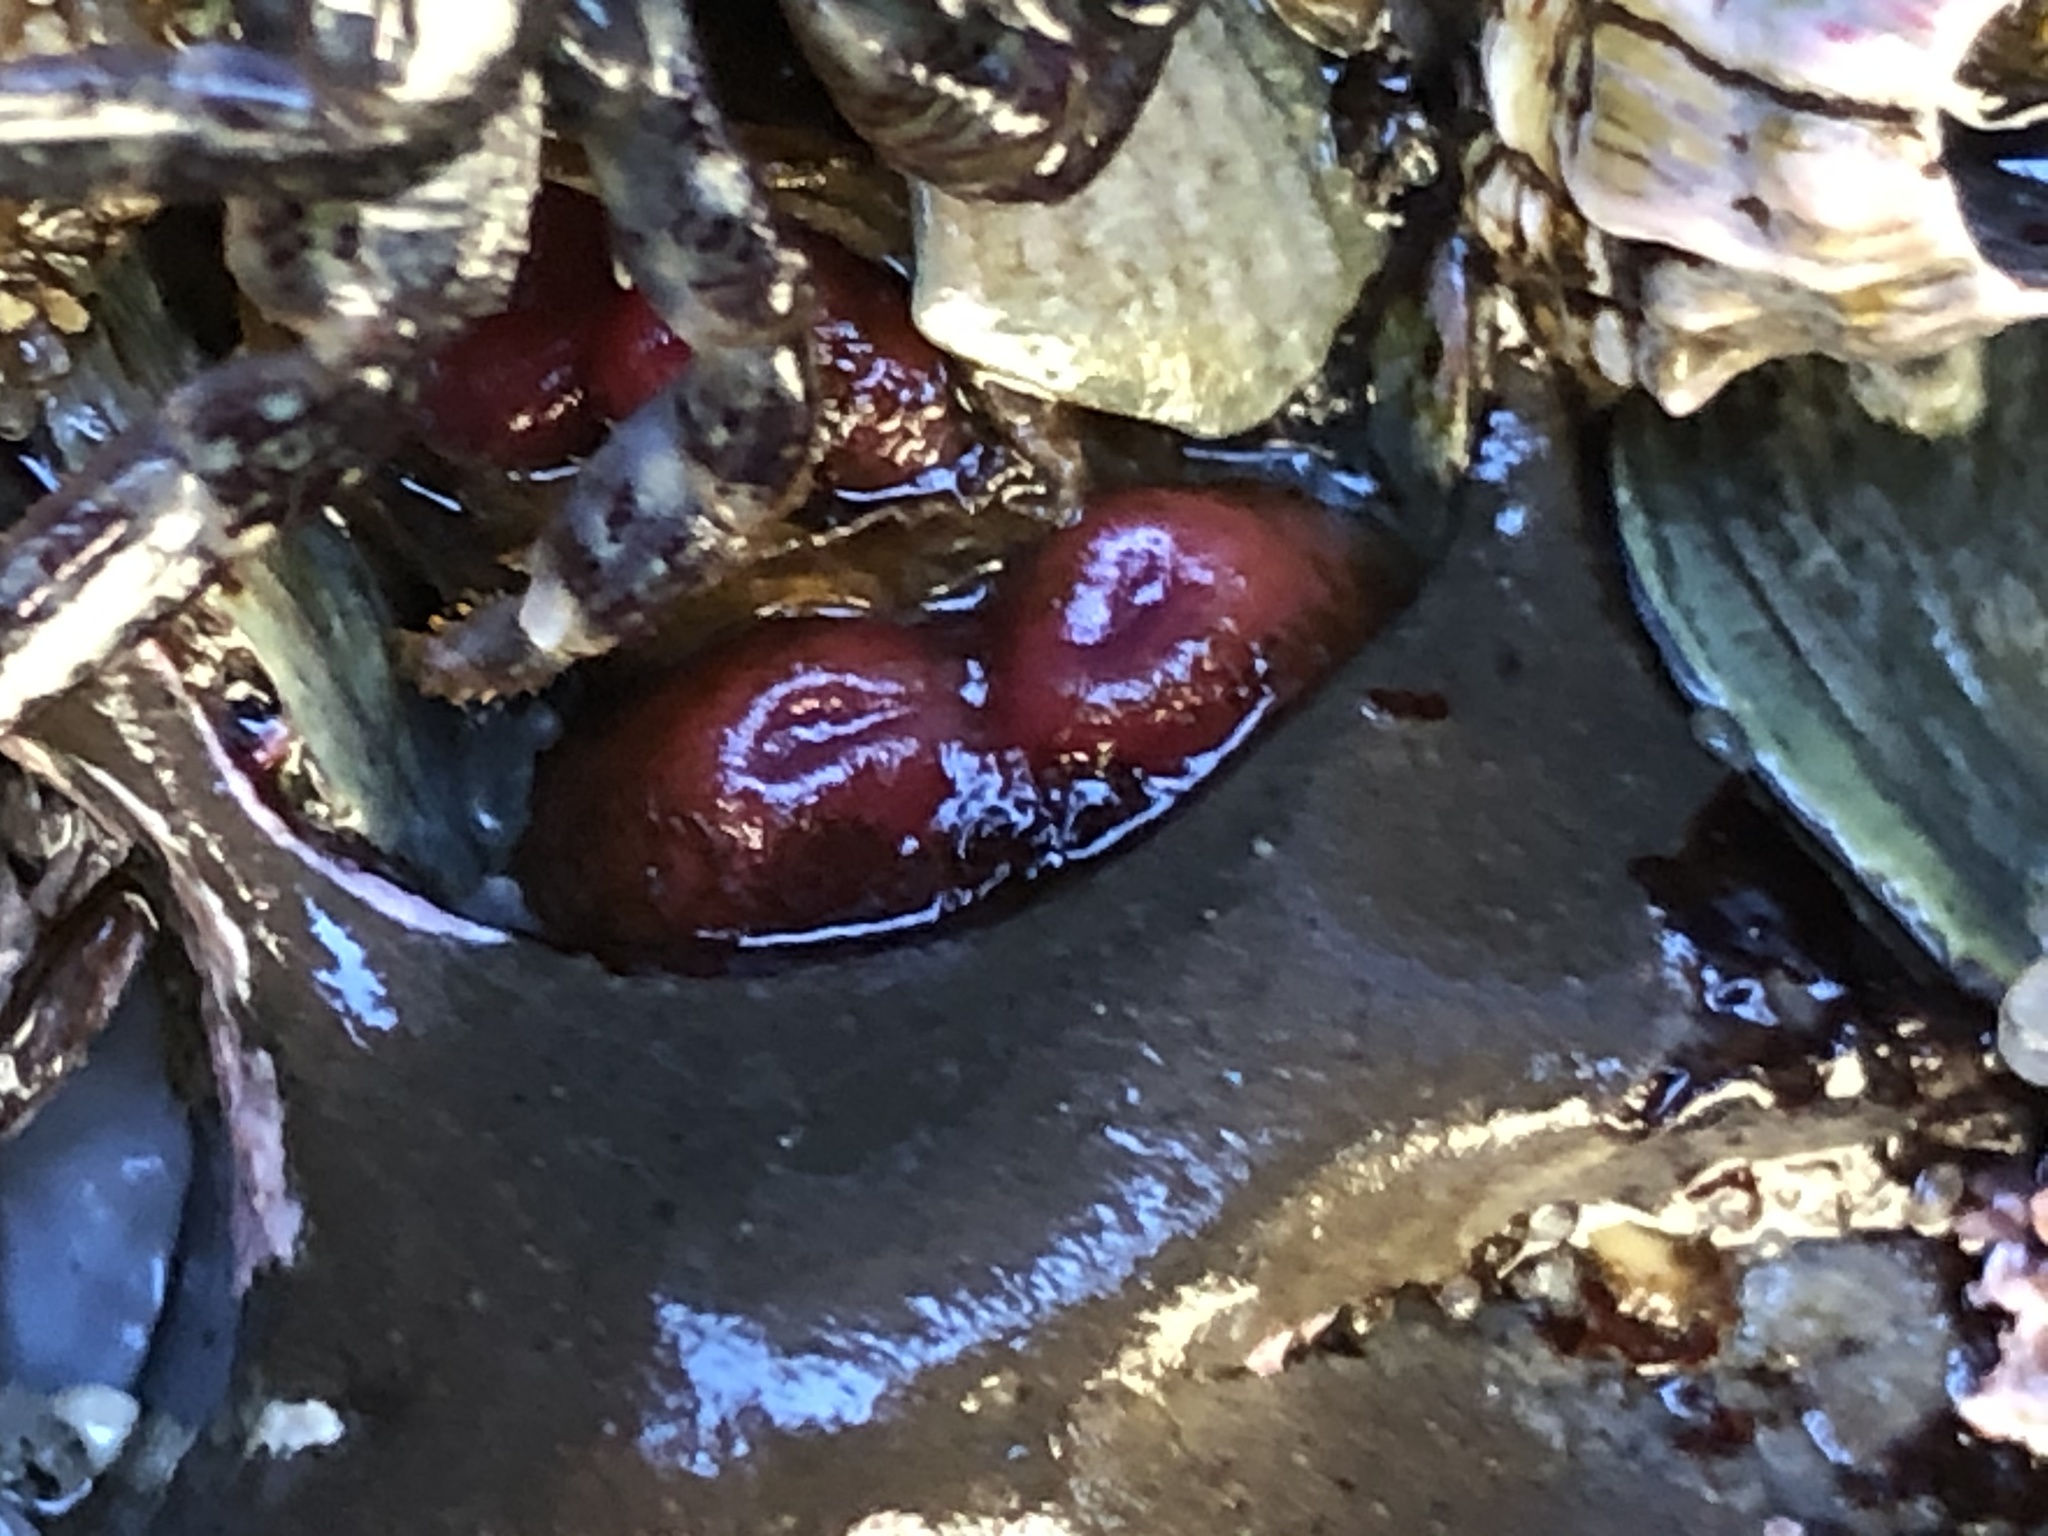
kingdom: Animalia
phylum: Mollusca
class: Bivalvia
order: Adapedonta
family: Hiatellidae
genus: Hiatella
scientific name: Hiatella arctica
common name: Arctic hiatella
